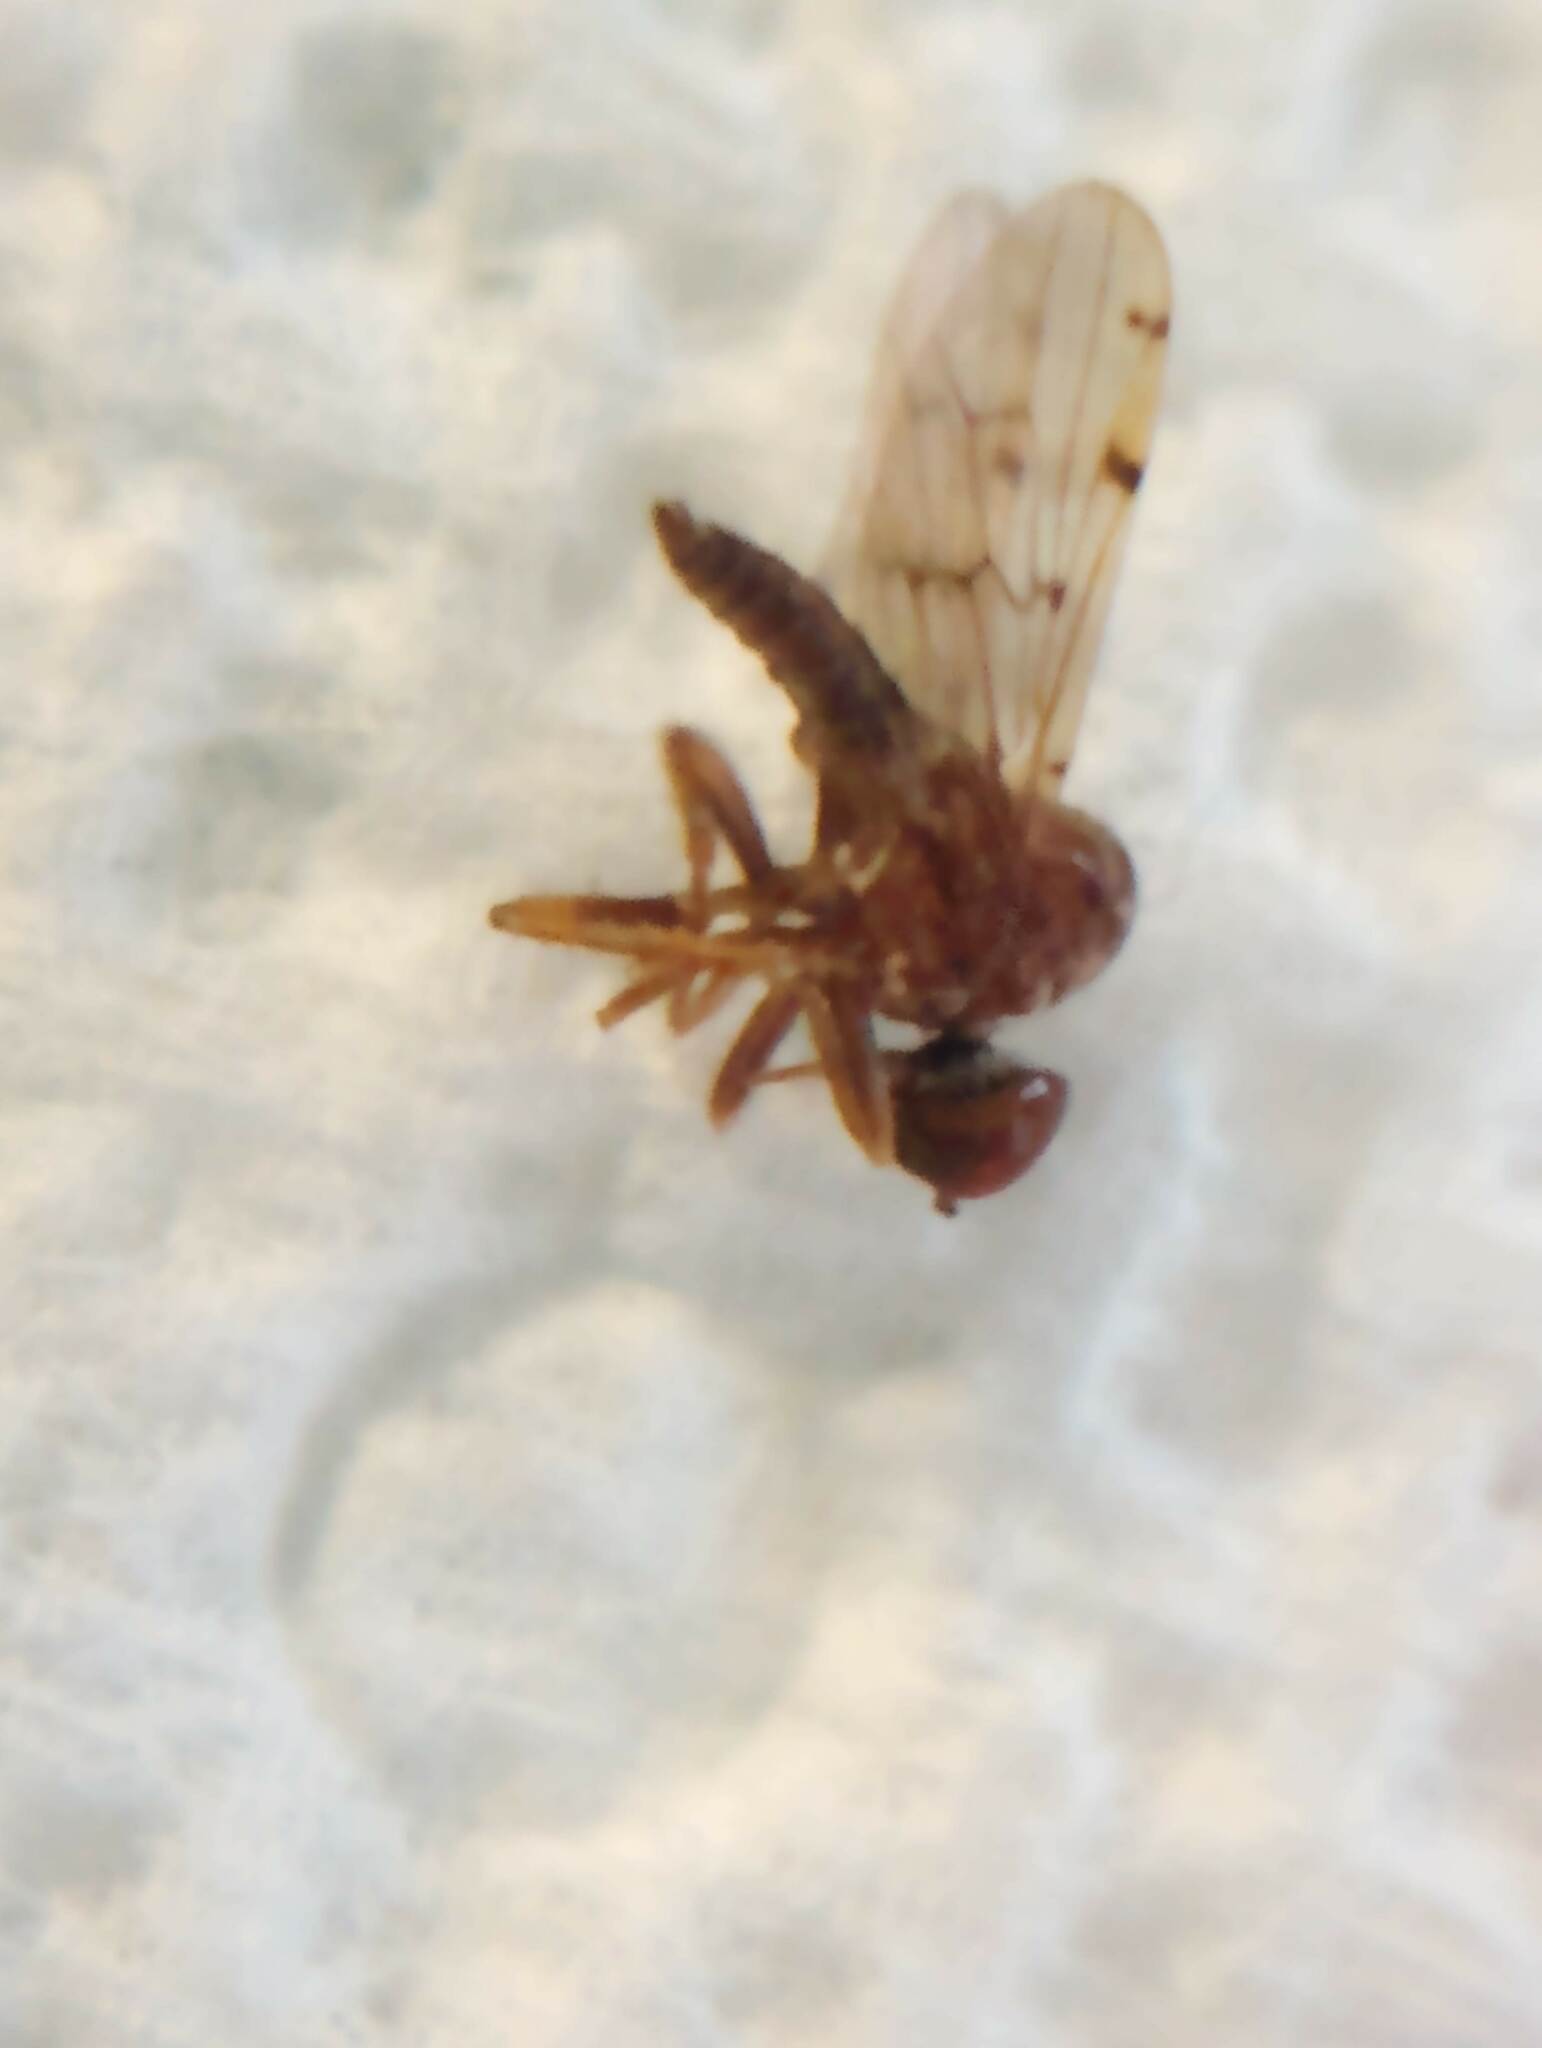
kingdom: Animalia
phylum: Arthropoda
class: Insecta
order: Diptera
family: Hybotidae
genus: Syneches
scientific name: Syneches simplex
